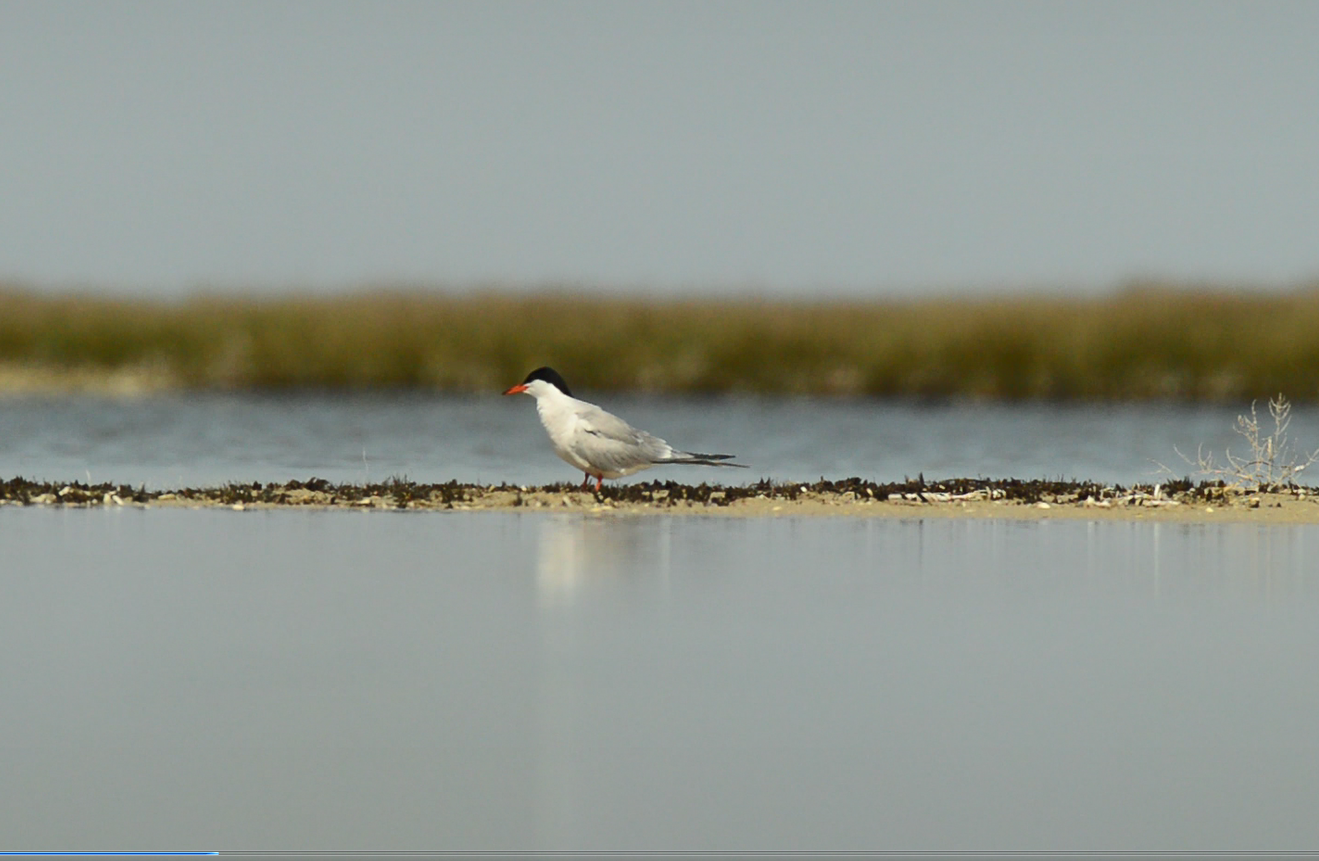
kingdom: Animalia
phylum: Chordata
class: Aves
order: Charadriiformes
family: Laridae
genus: Sterna
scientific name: Sterna hirundo
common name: Common tern
